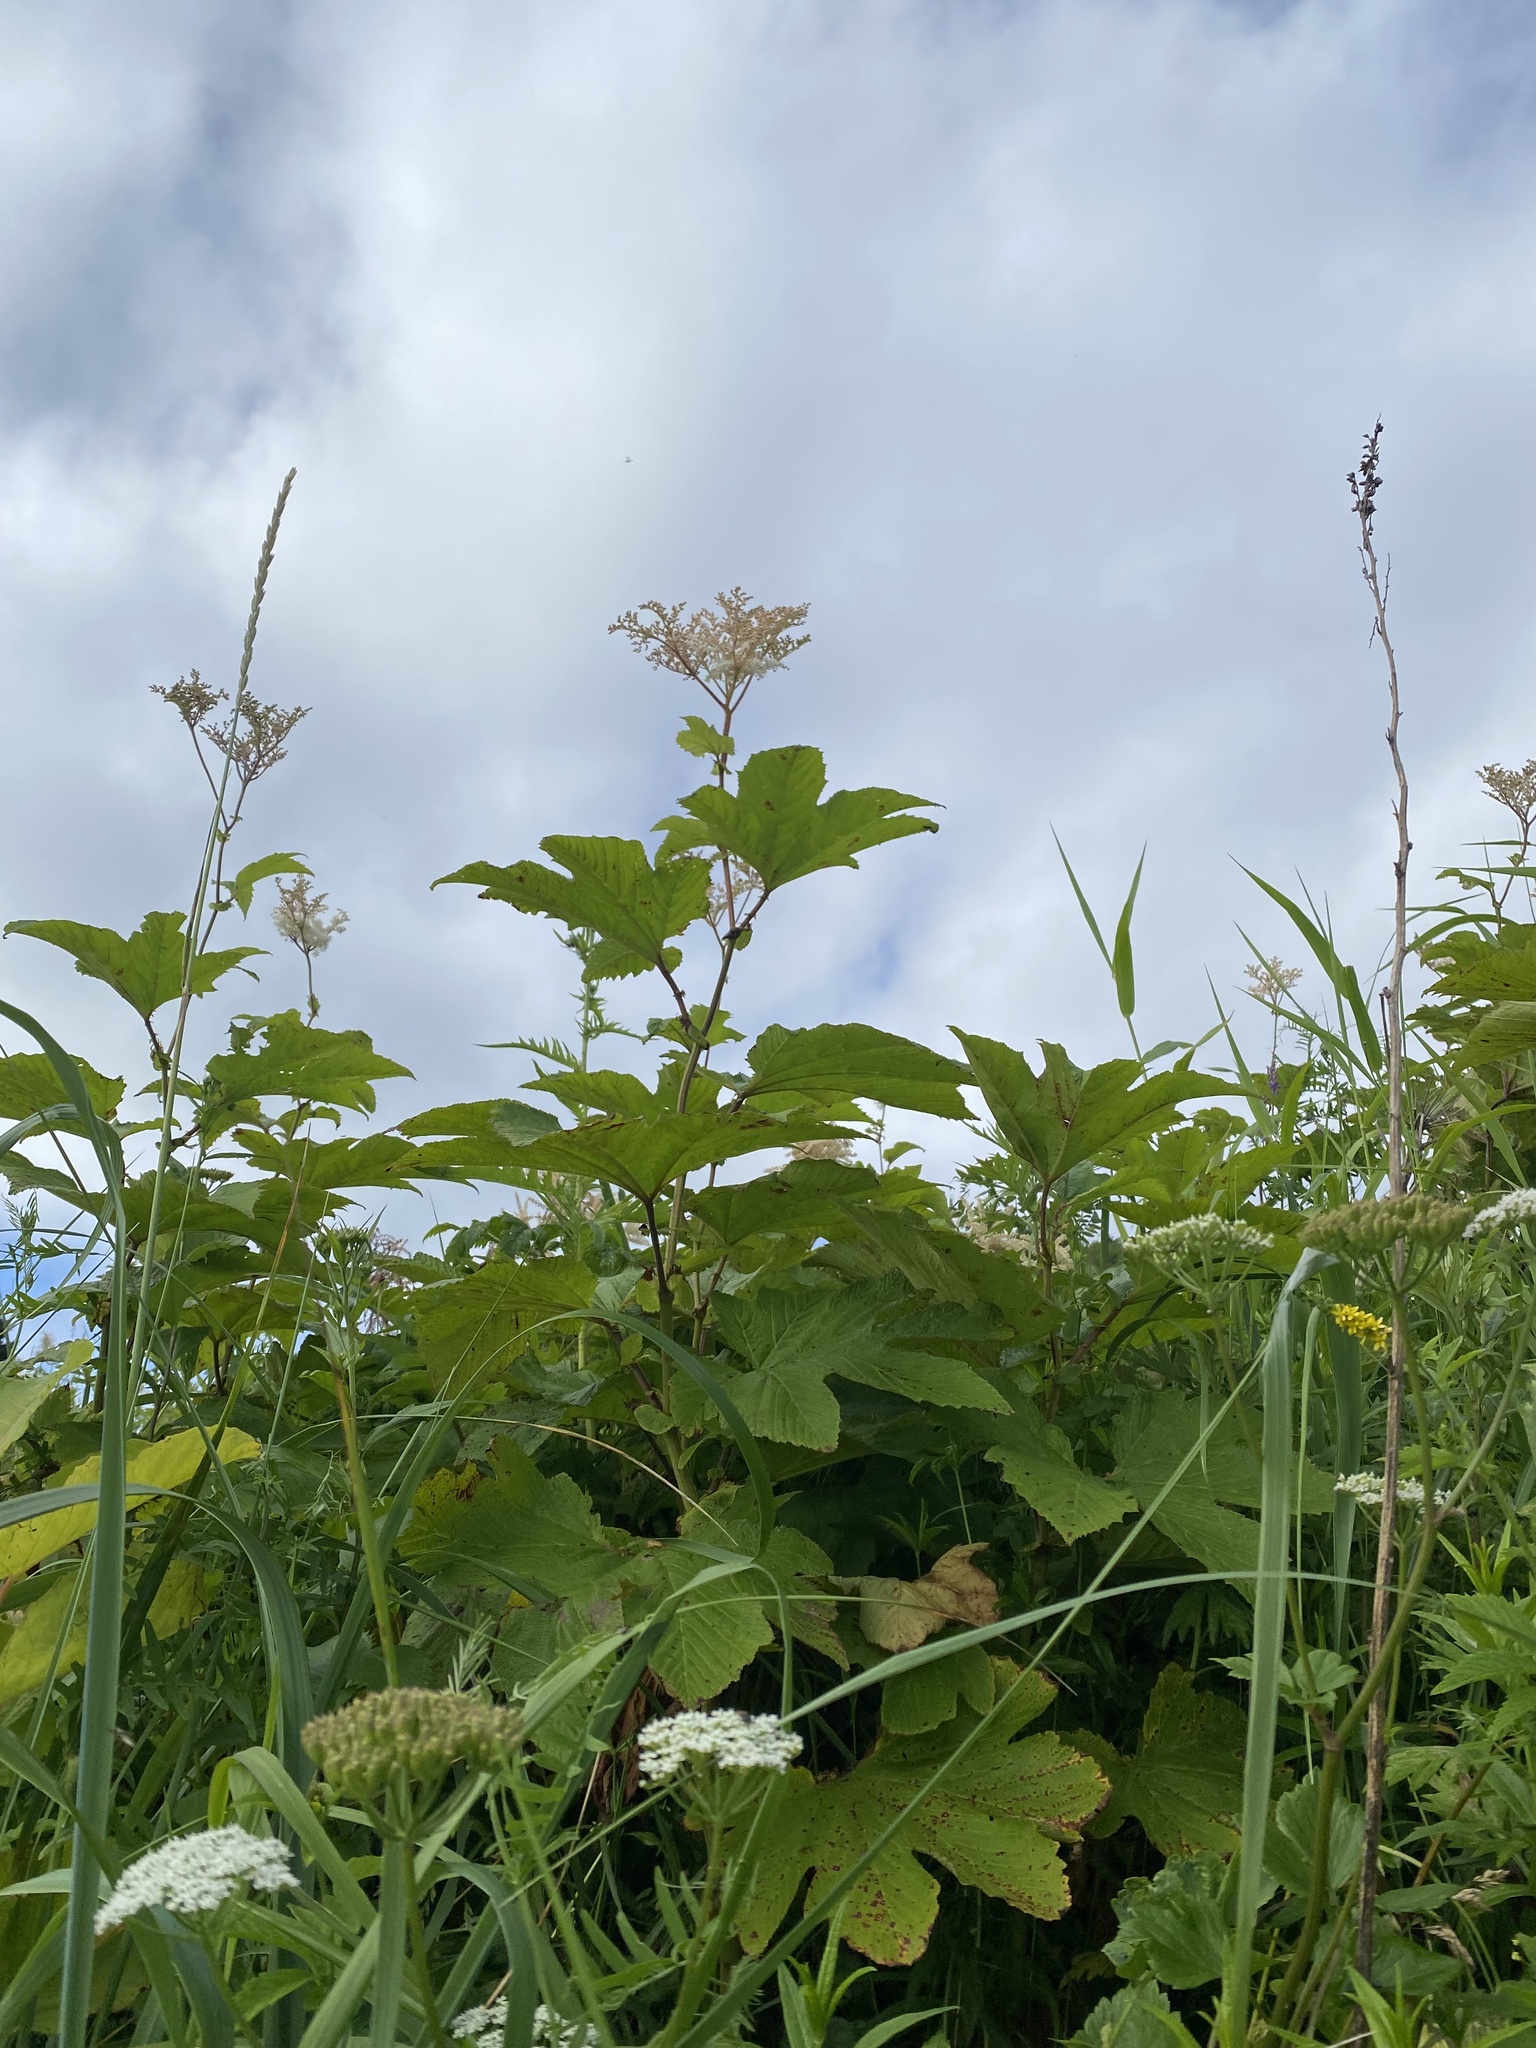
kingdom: Plantae
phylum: Tracheophyta
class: Magnoliopsida
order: Rosales
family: Rosaceae
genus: Filipendula
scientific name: Filipendula camtschatica
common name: Giant meadowsweet
